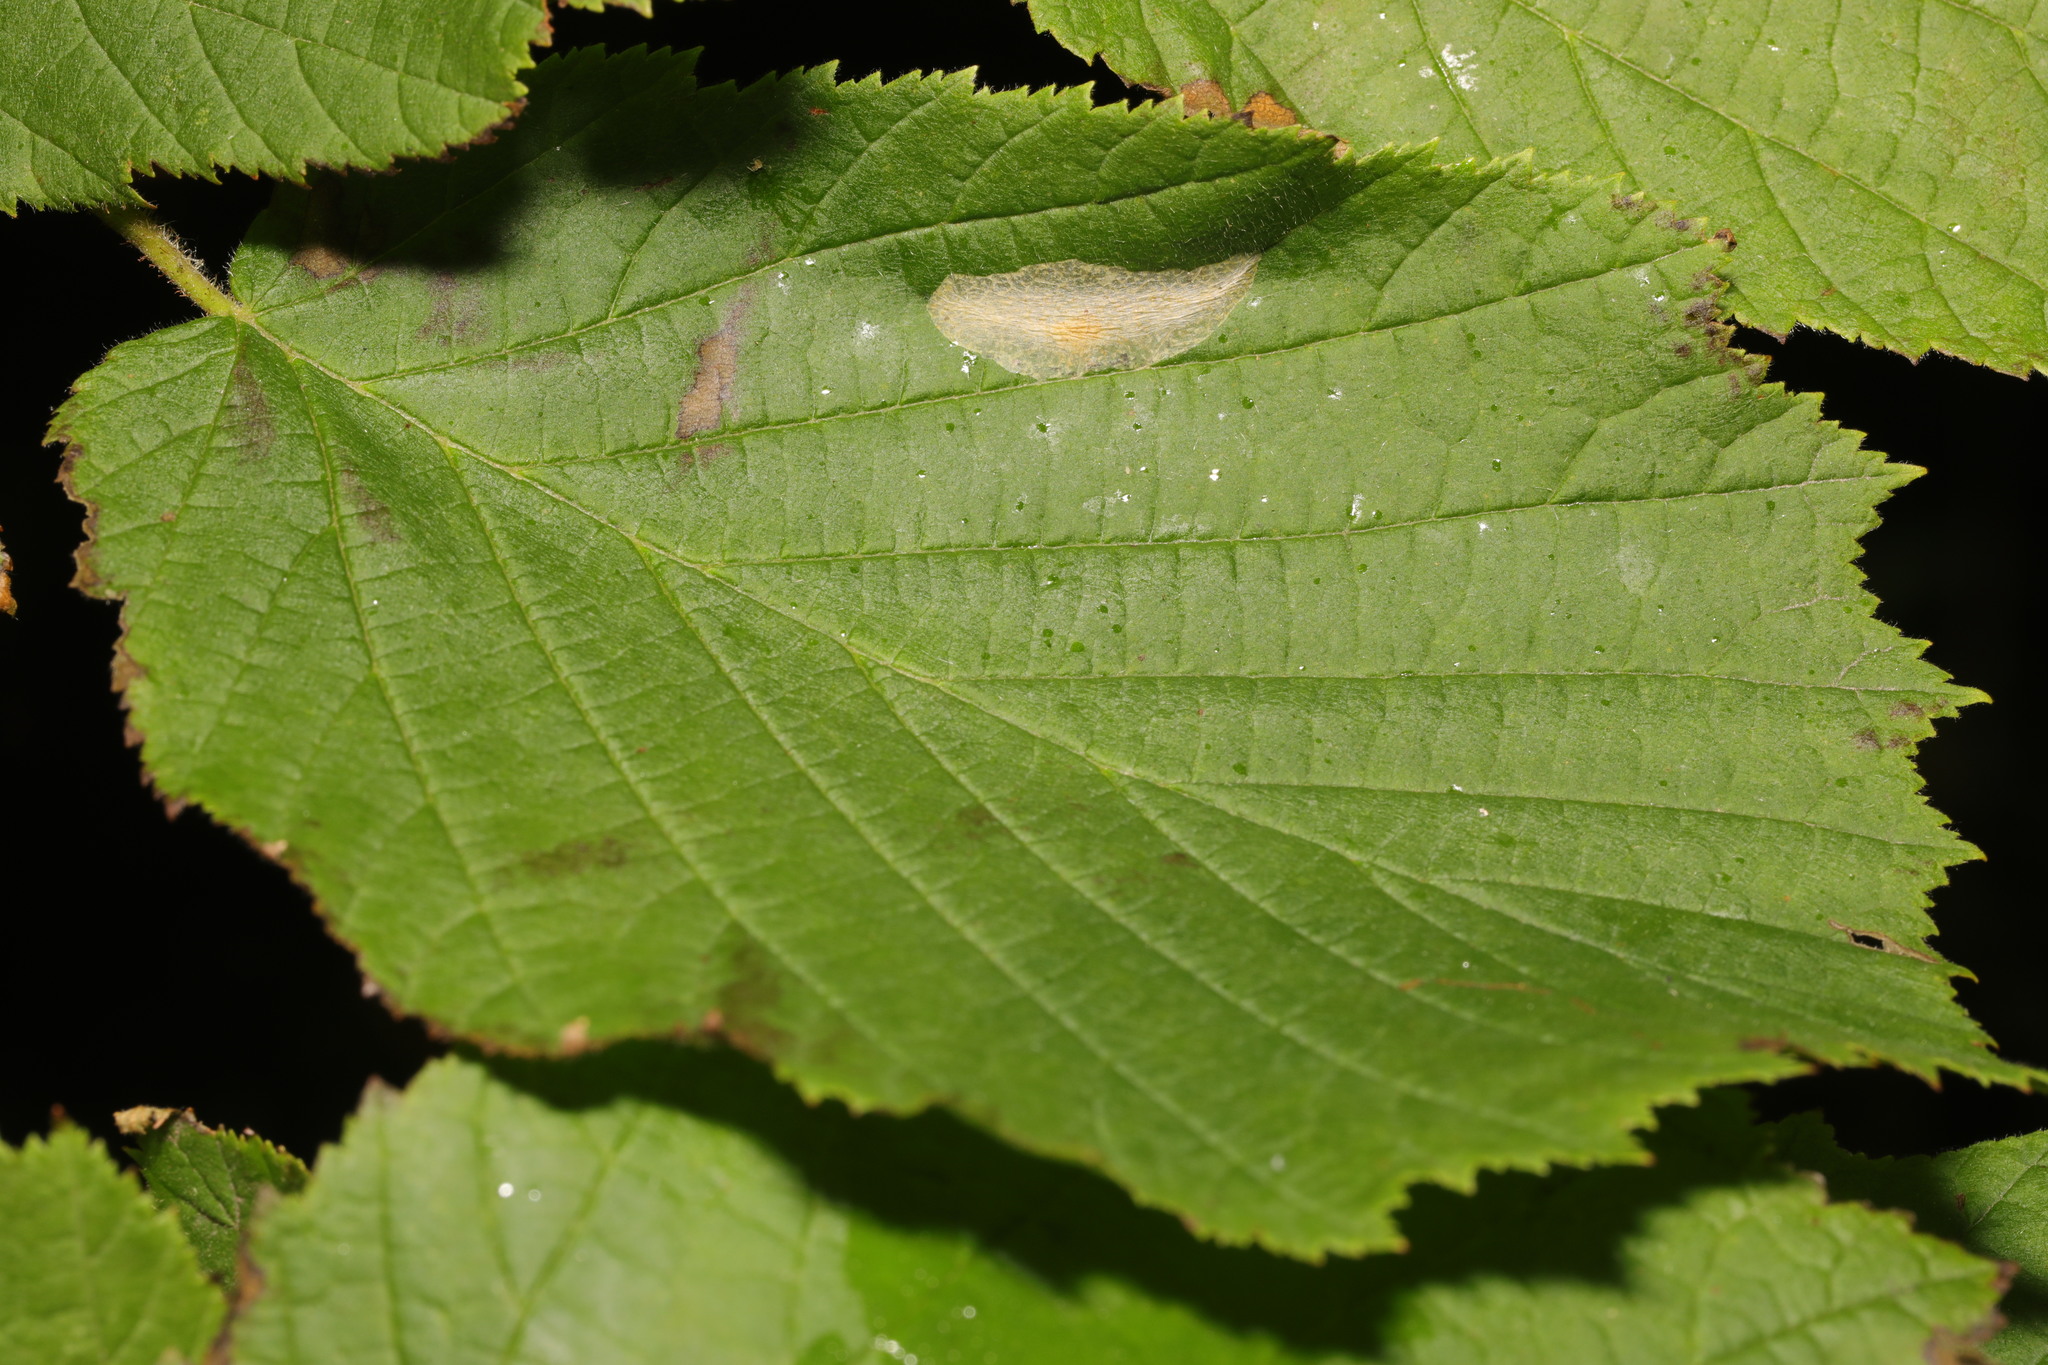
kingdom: Animalia
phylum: Arthropoda
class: Insecta
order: Lepidoptera
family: Gracillariidae
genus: Phyllonorycter
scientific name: Phyllonorycter coryli
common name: Nut-leaf blister moth
